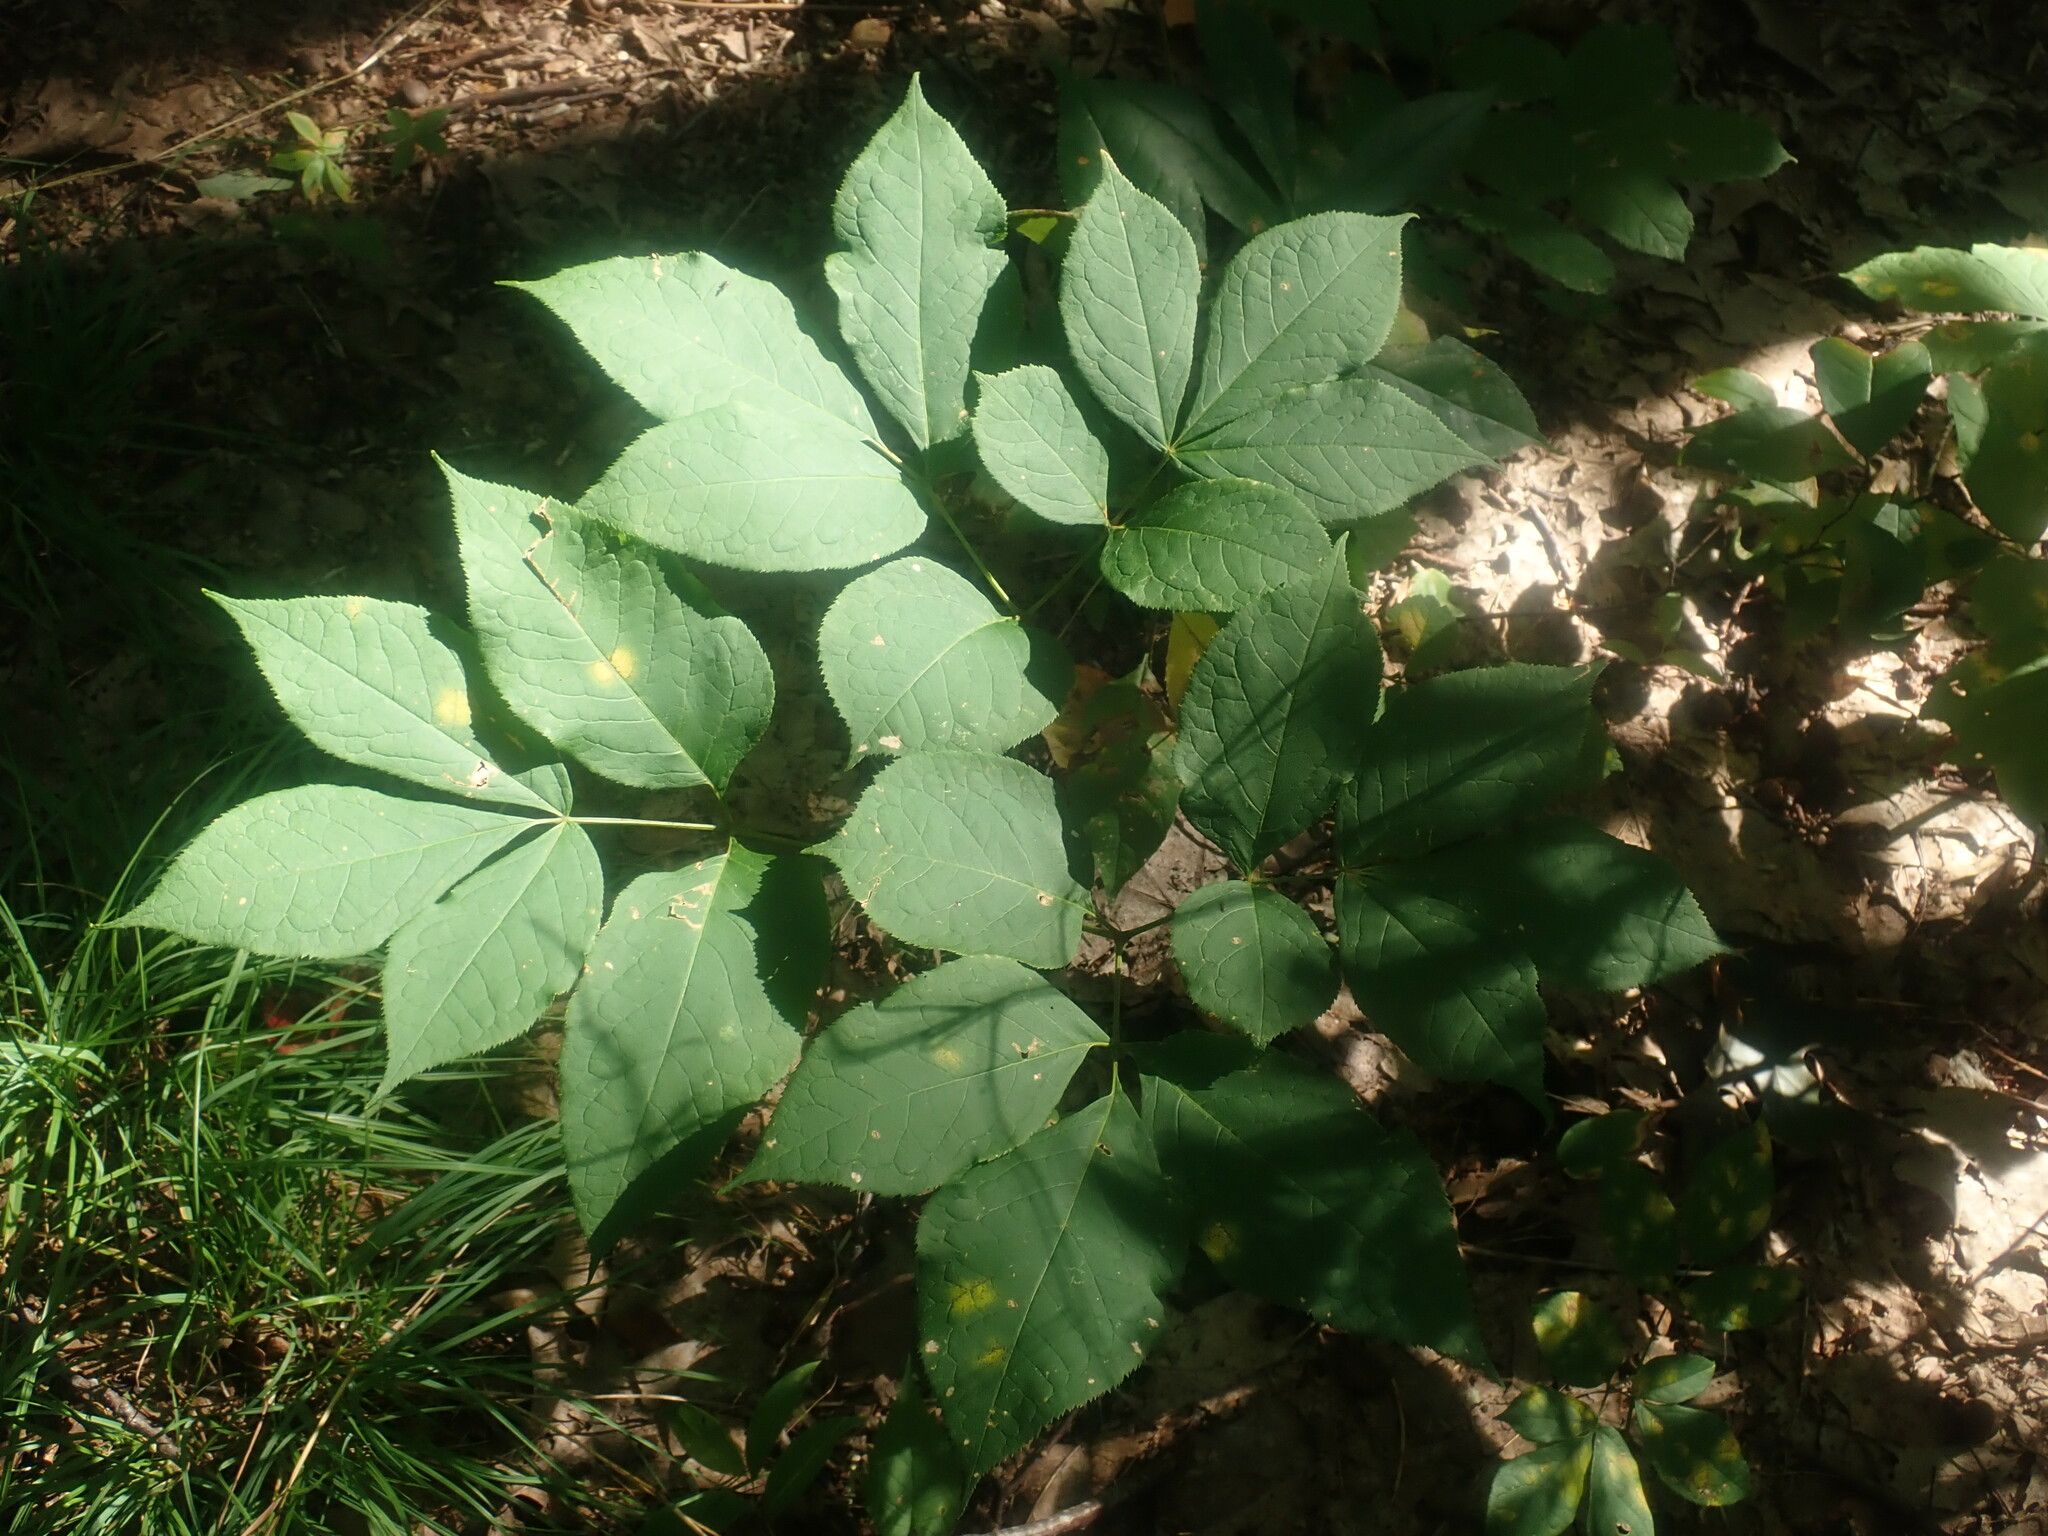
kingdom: Plantae
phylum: Tracheophyta
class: Magnoliopsida
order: Apiales
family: Araliaceae
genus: Aralia
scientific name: Aralia nudicaulis
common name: Wild sarsaparilla
